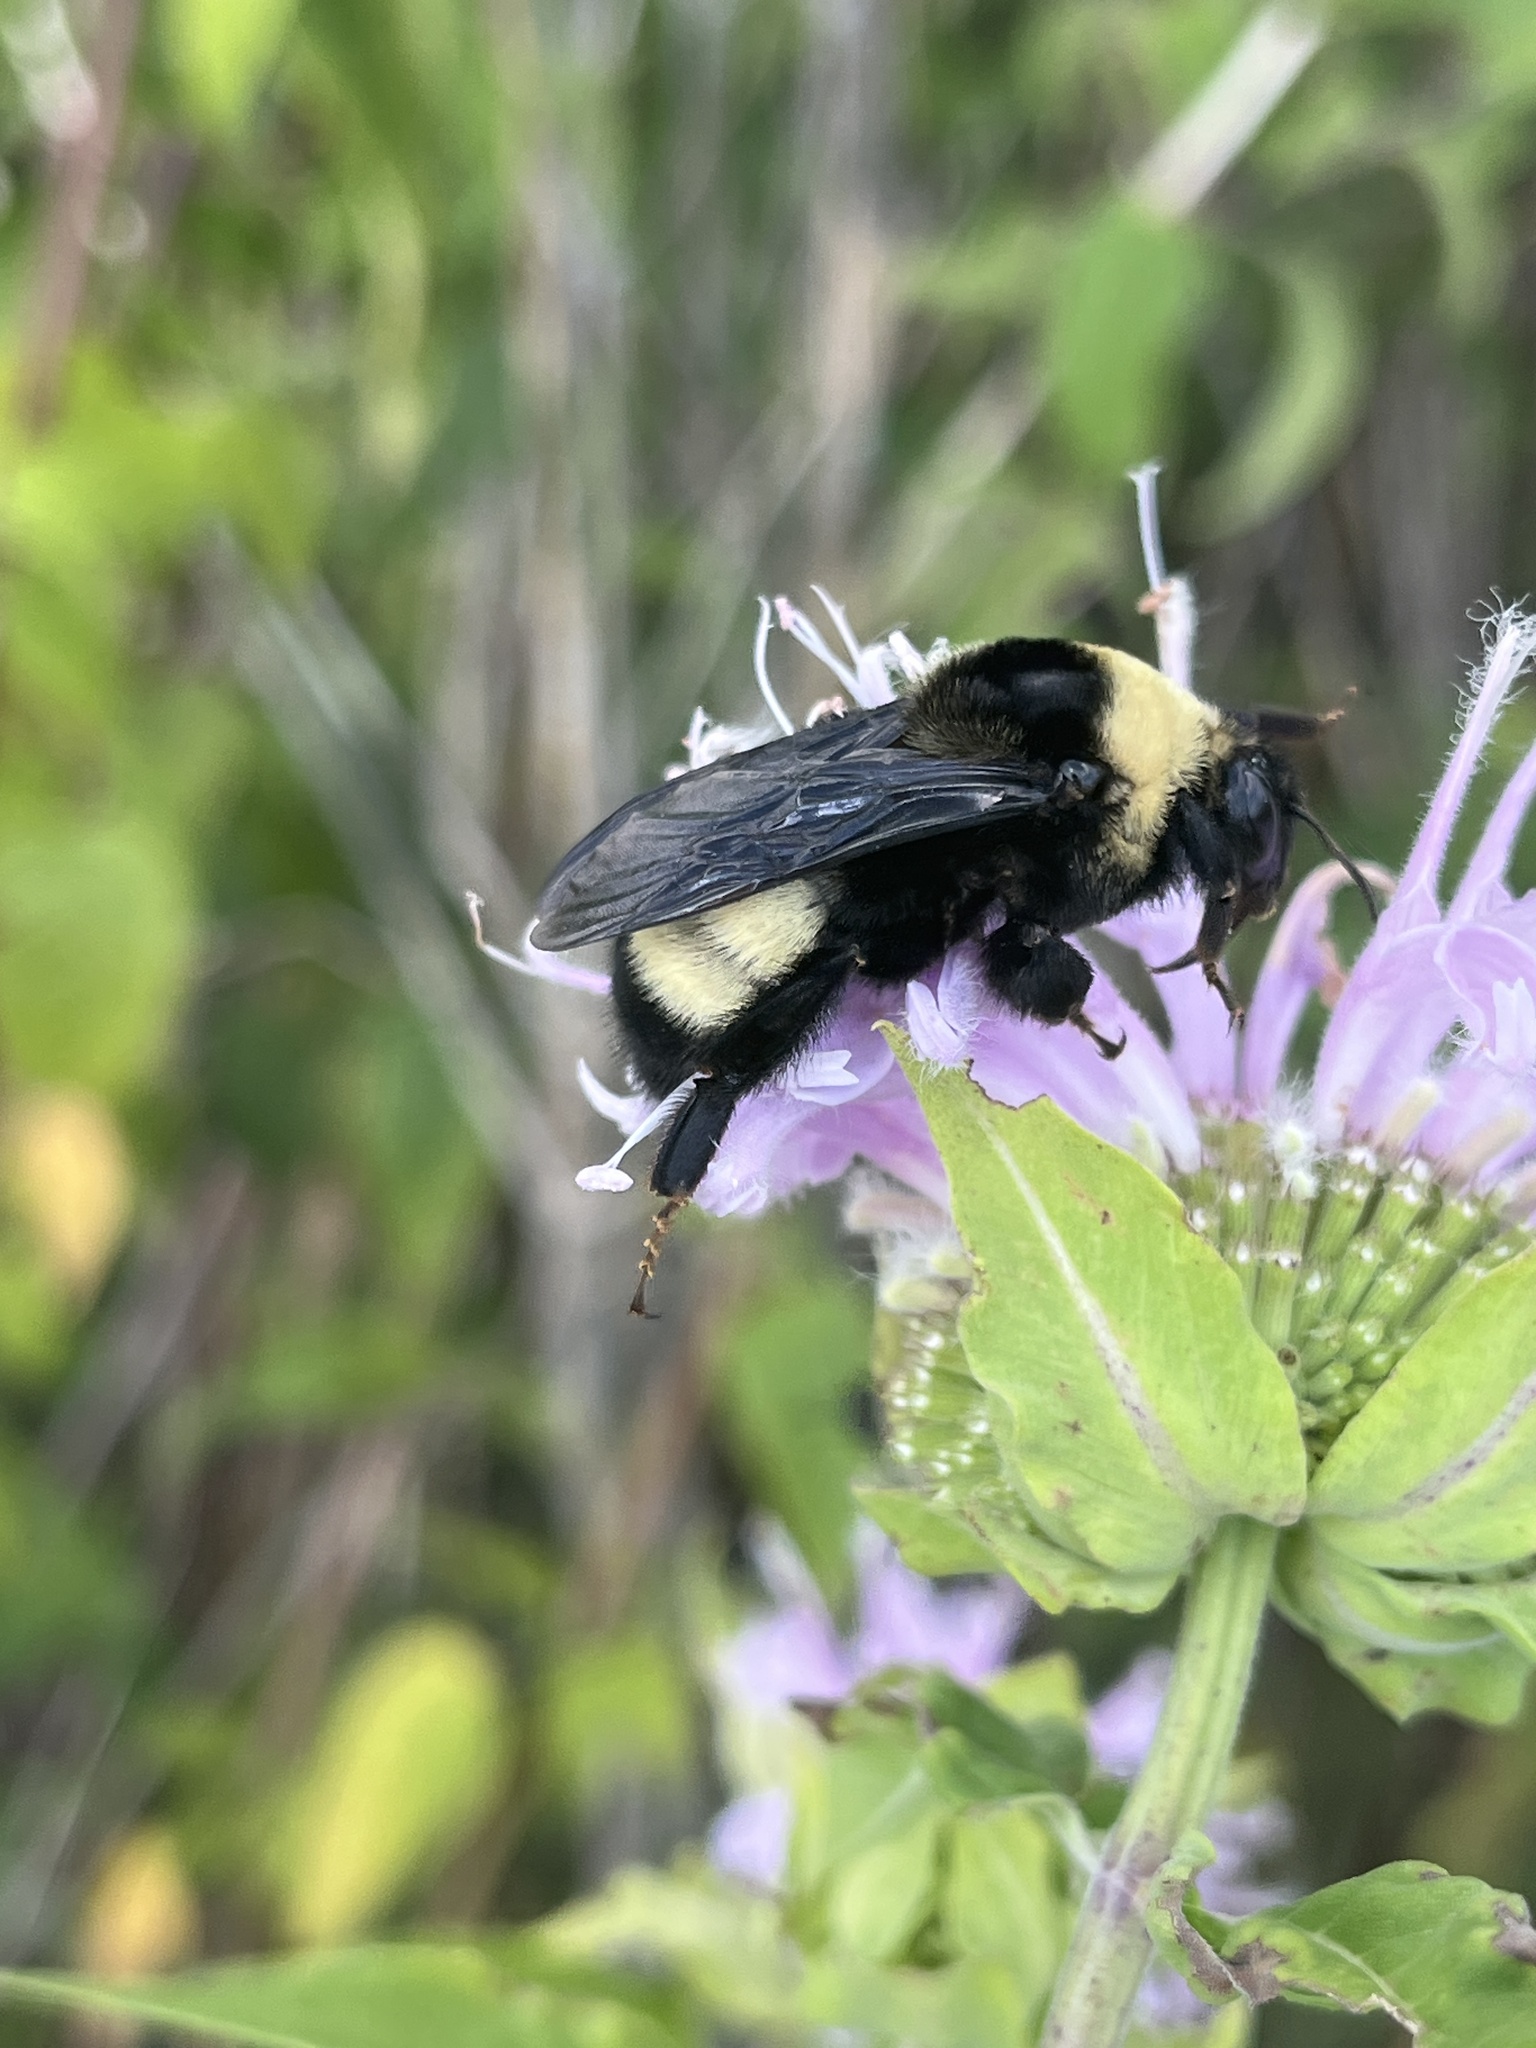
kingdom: Animalia
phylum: Arthropoda
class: Insecta
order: Hymenoptera
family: Apidae
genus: Bombus
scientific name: Bombus auricomus
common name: Black and gold bumble bee
